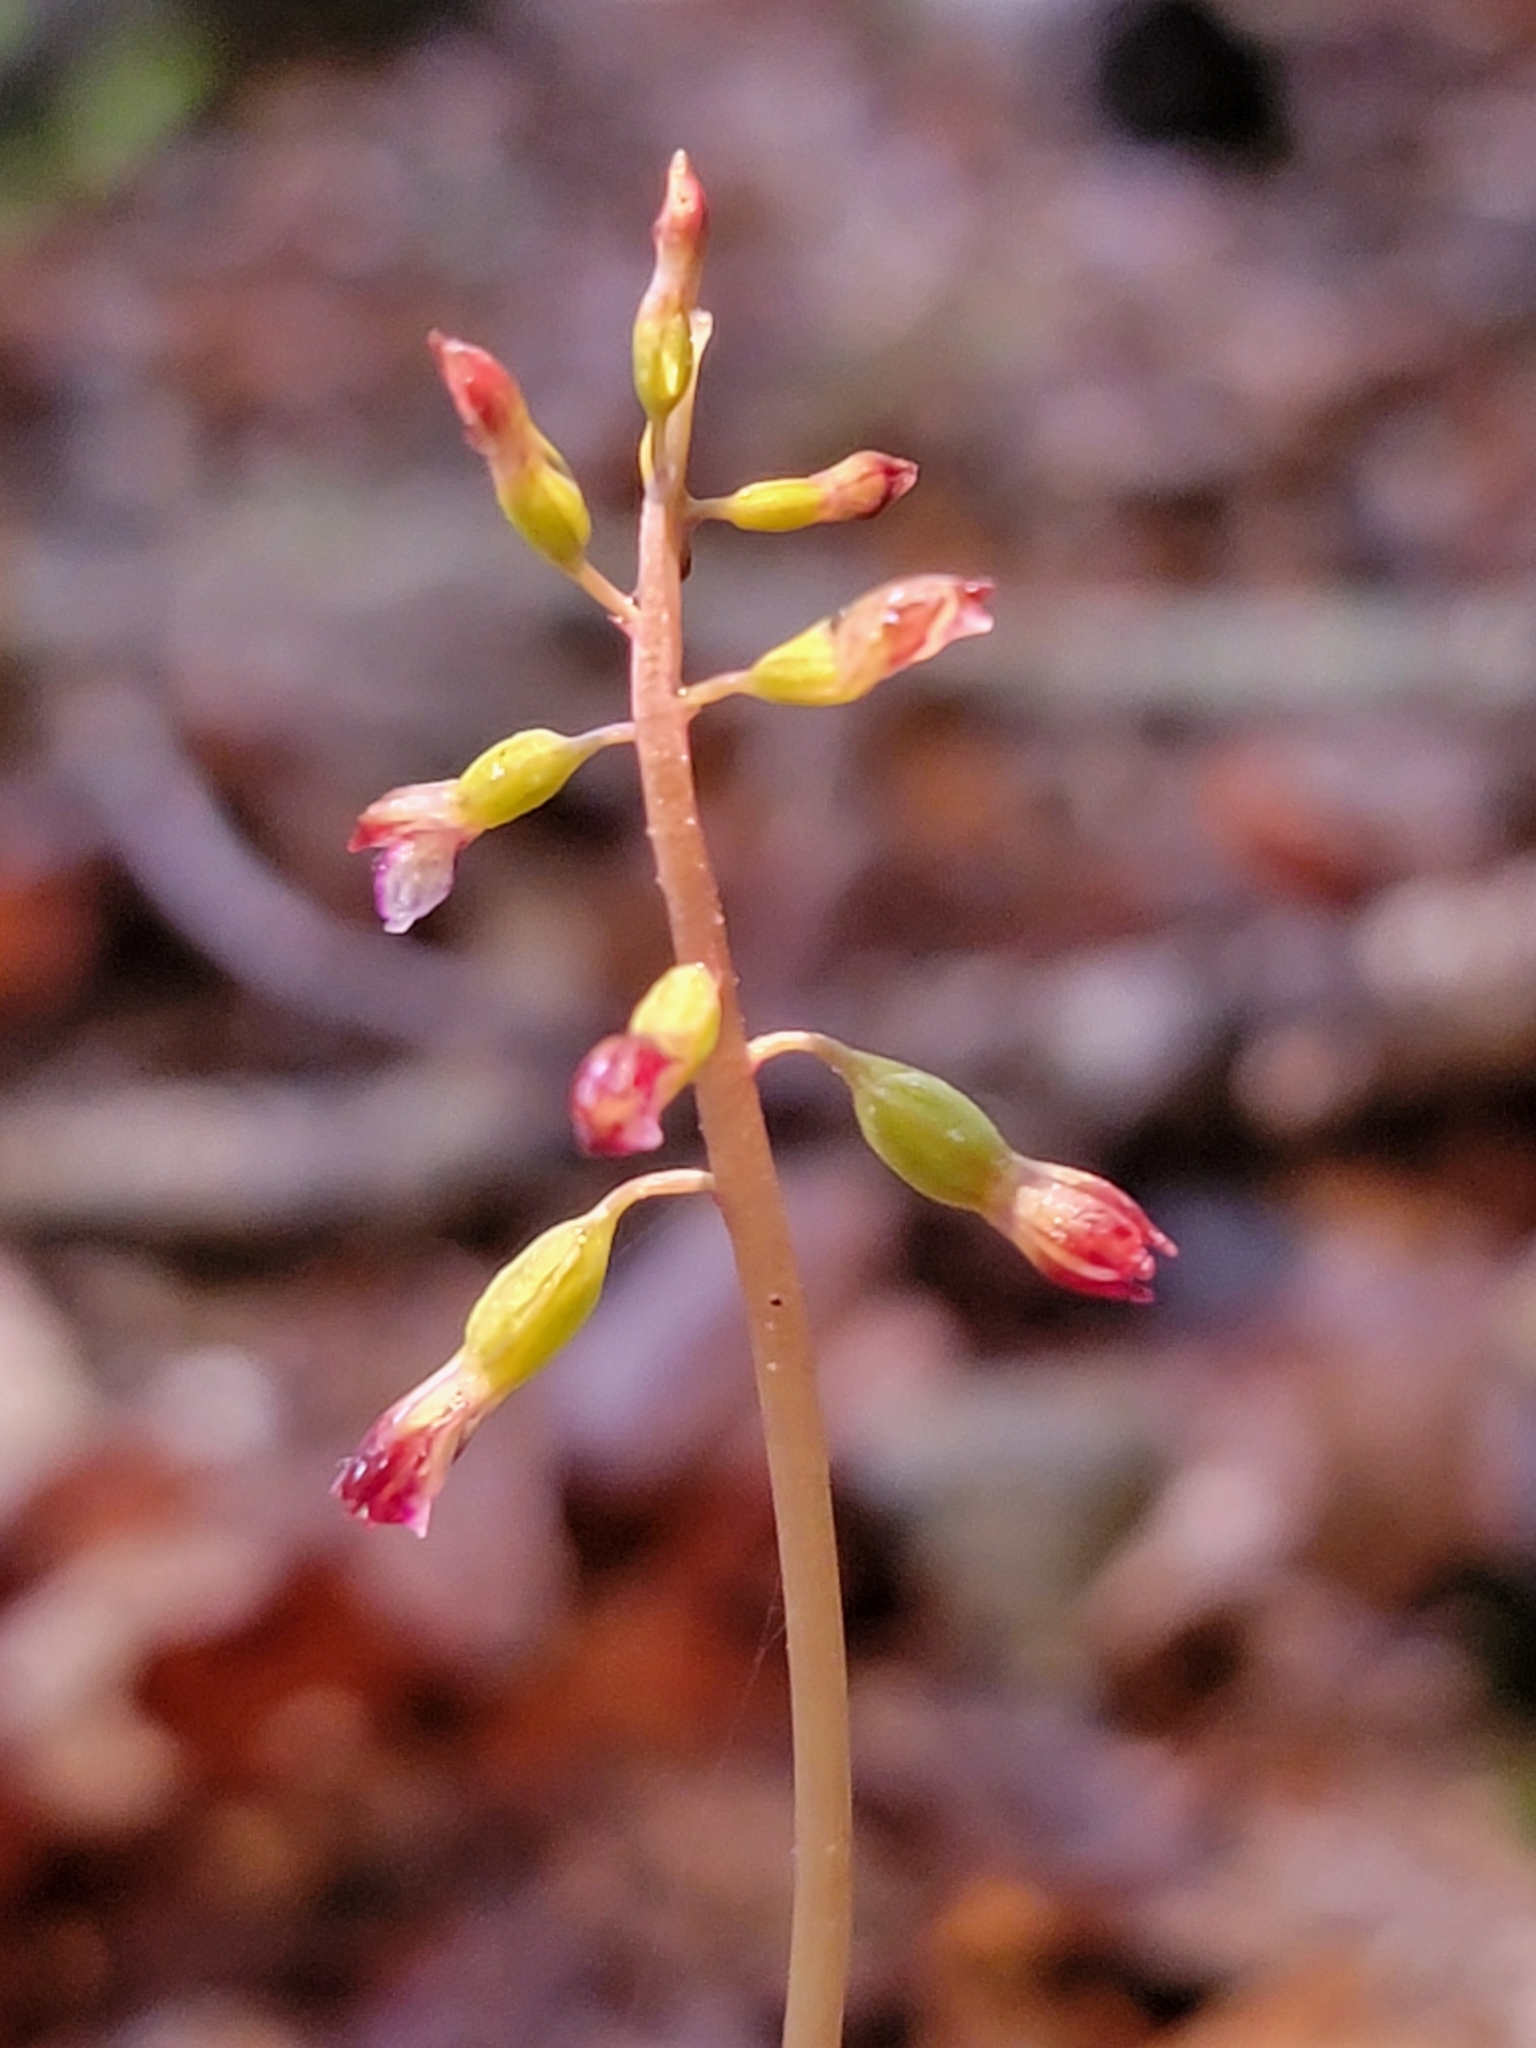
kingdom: Plantae
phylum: Tracheophyta
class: Liliopsida
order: Asparagales
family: Orchidaceae
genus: Corallorhiza
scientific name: Corallorhiza odontorhiza
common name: Autumn coralroot
